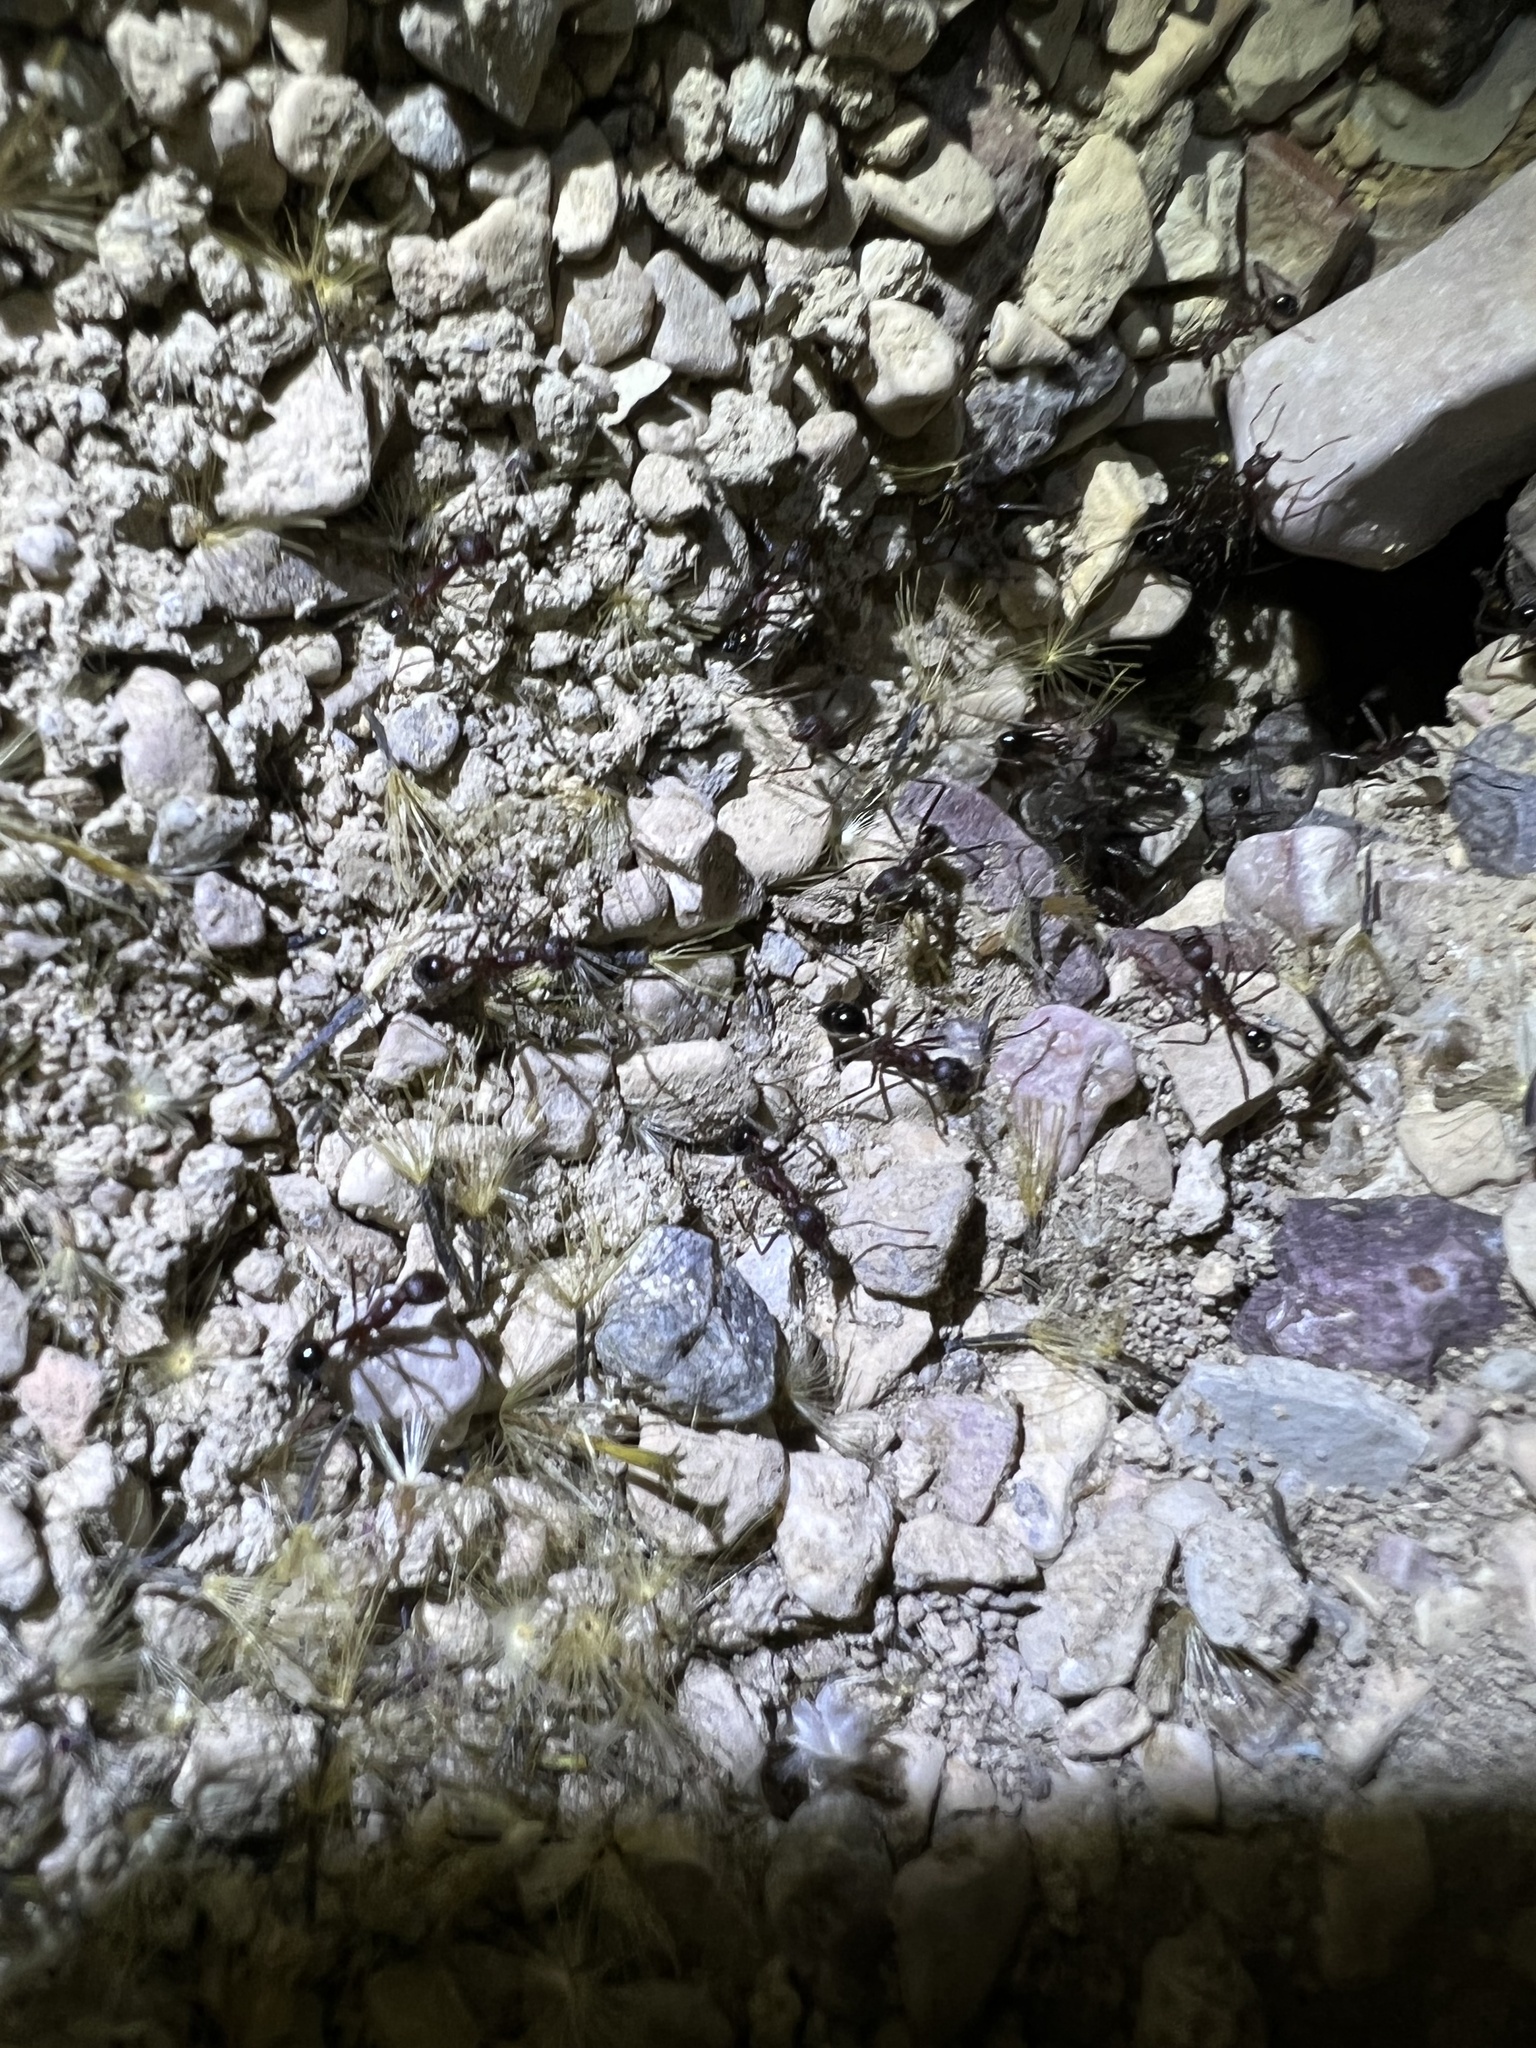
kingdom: Animalia
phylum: Arthropoda
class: Insecta
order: Hymenoptera
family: Formicidae
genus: Novomessor
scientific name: Novomessor albisetosa
